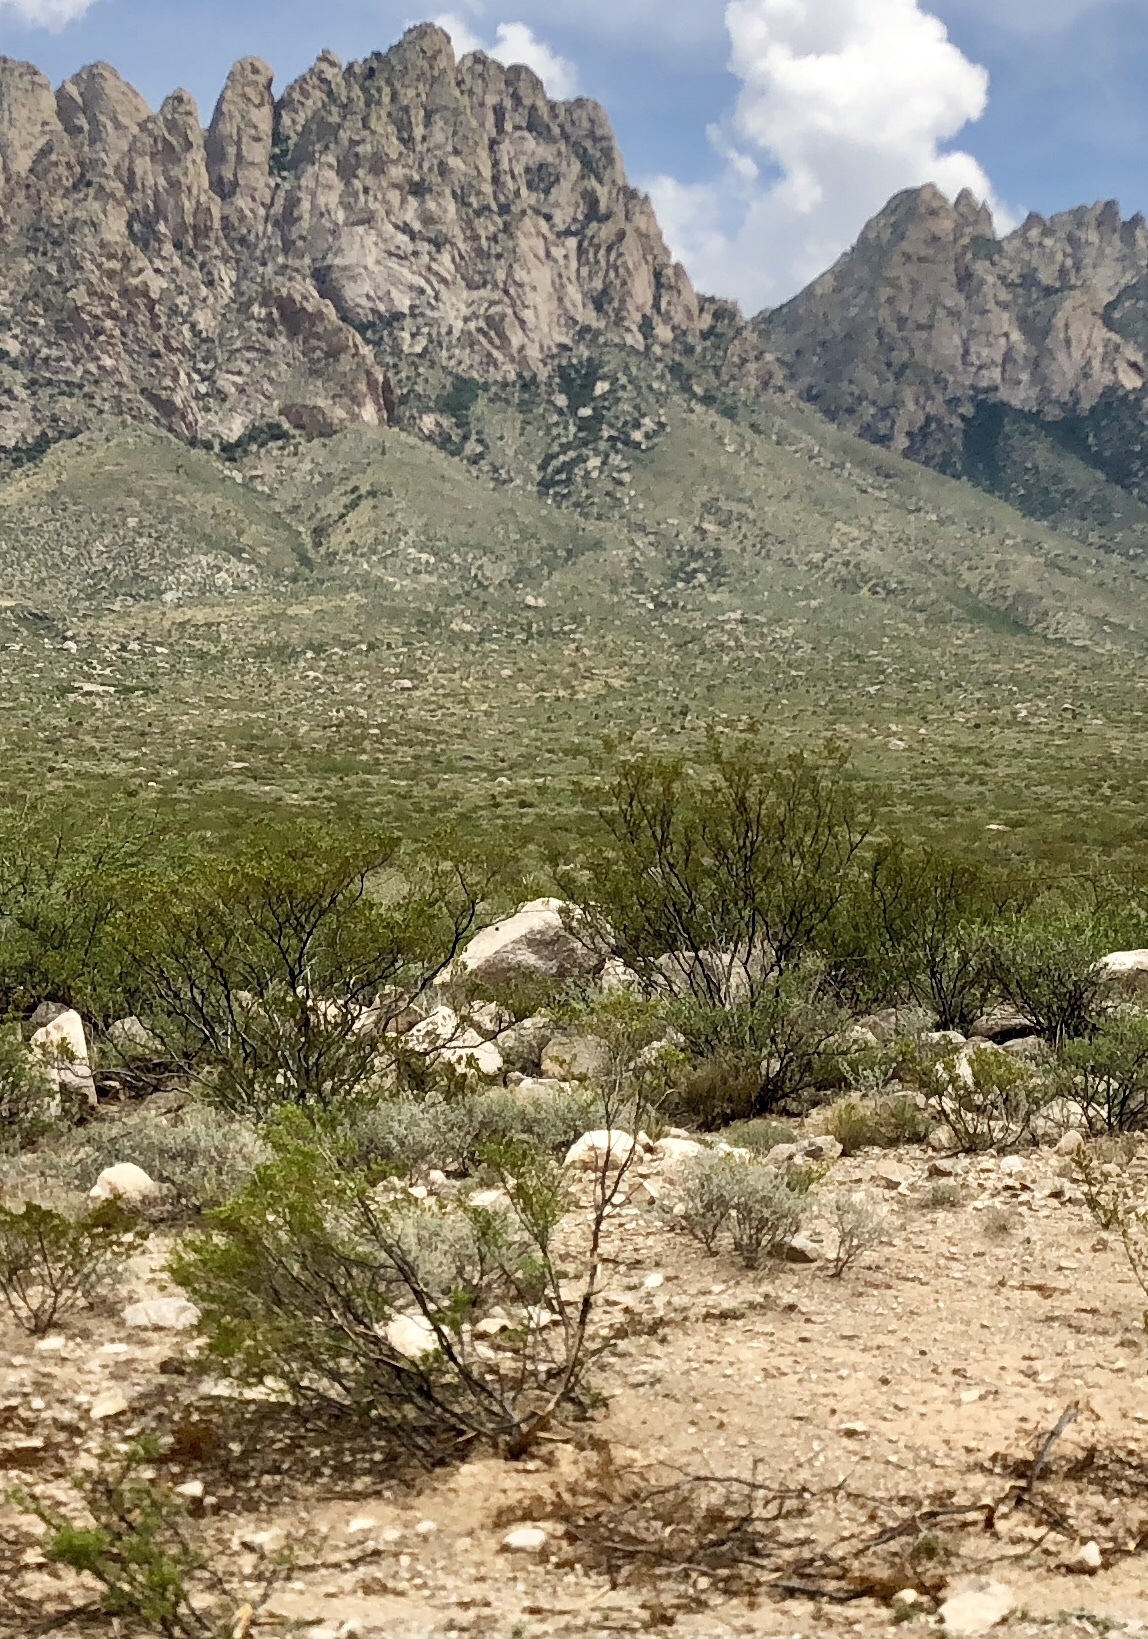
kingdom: Plantae
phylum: Tracheophyta
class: Magnoliopsida
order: Zygophyllales
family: Zygophyllaceae
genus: Larrea
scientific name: Larrea tridentata
